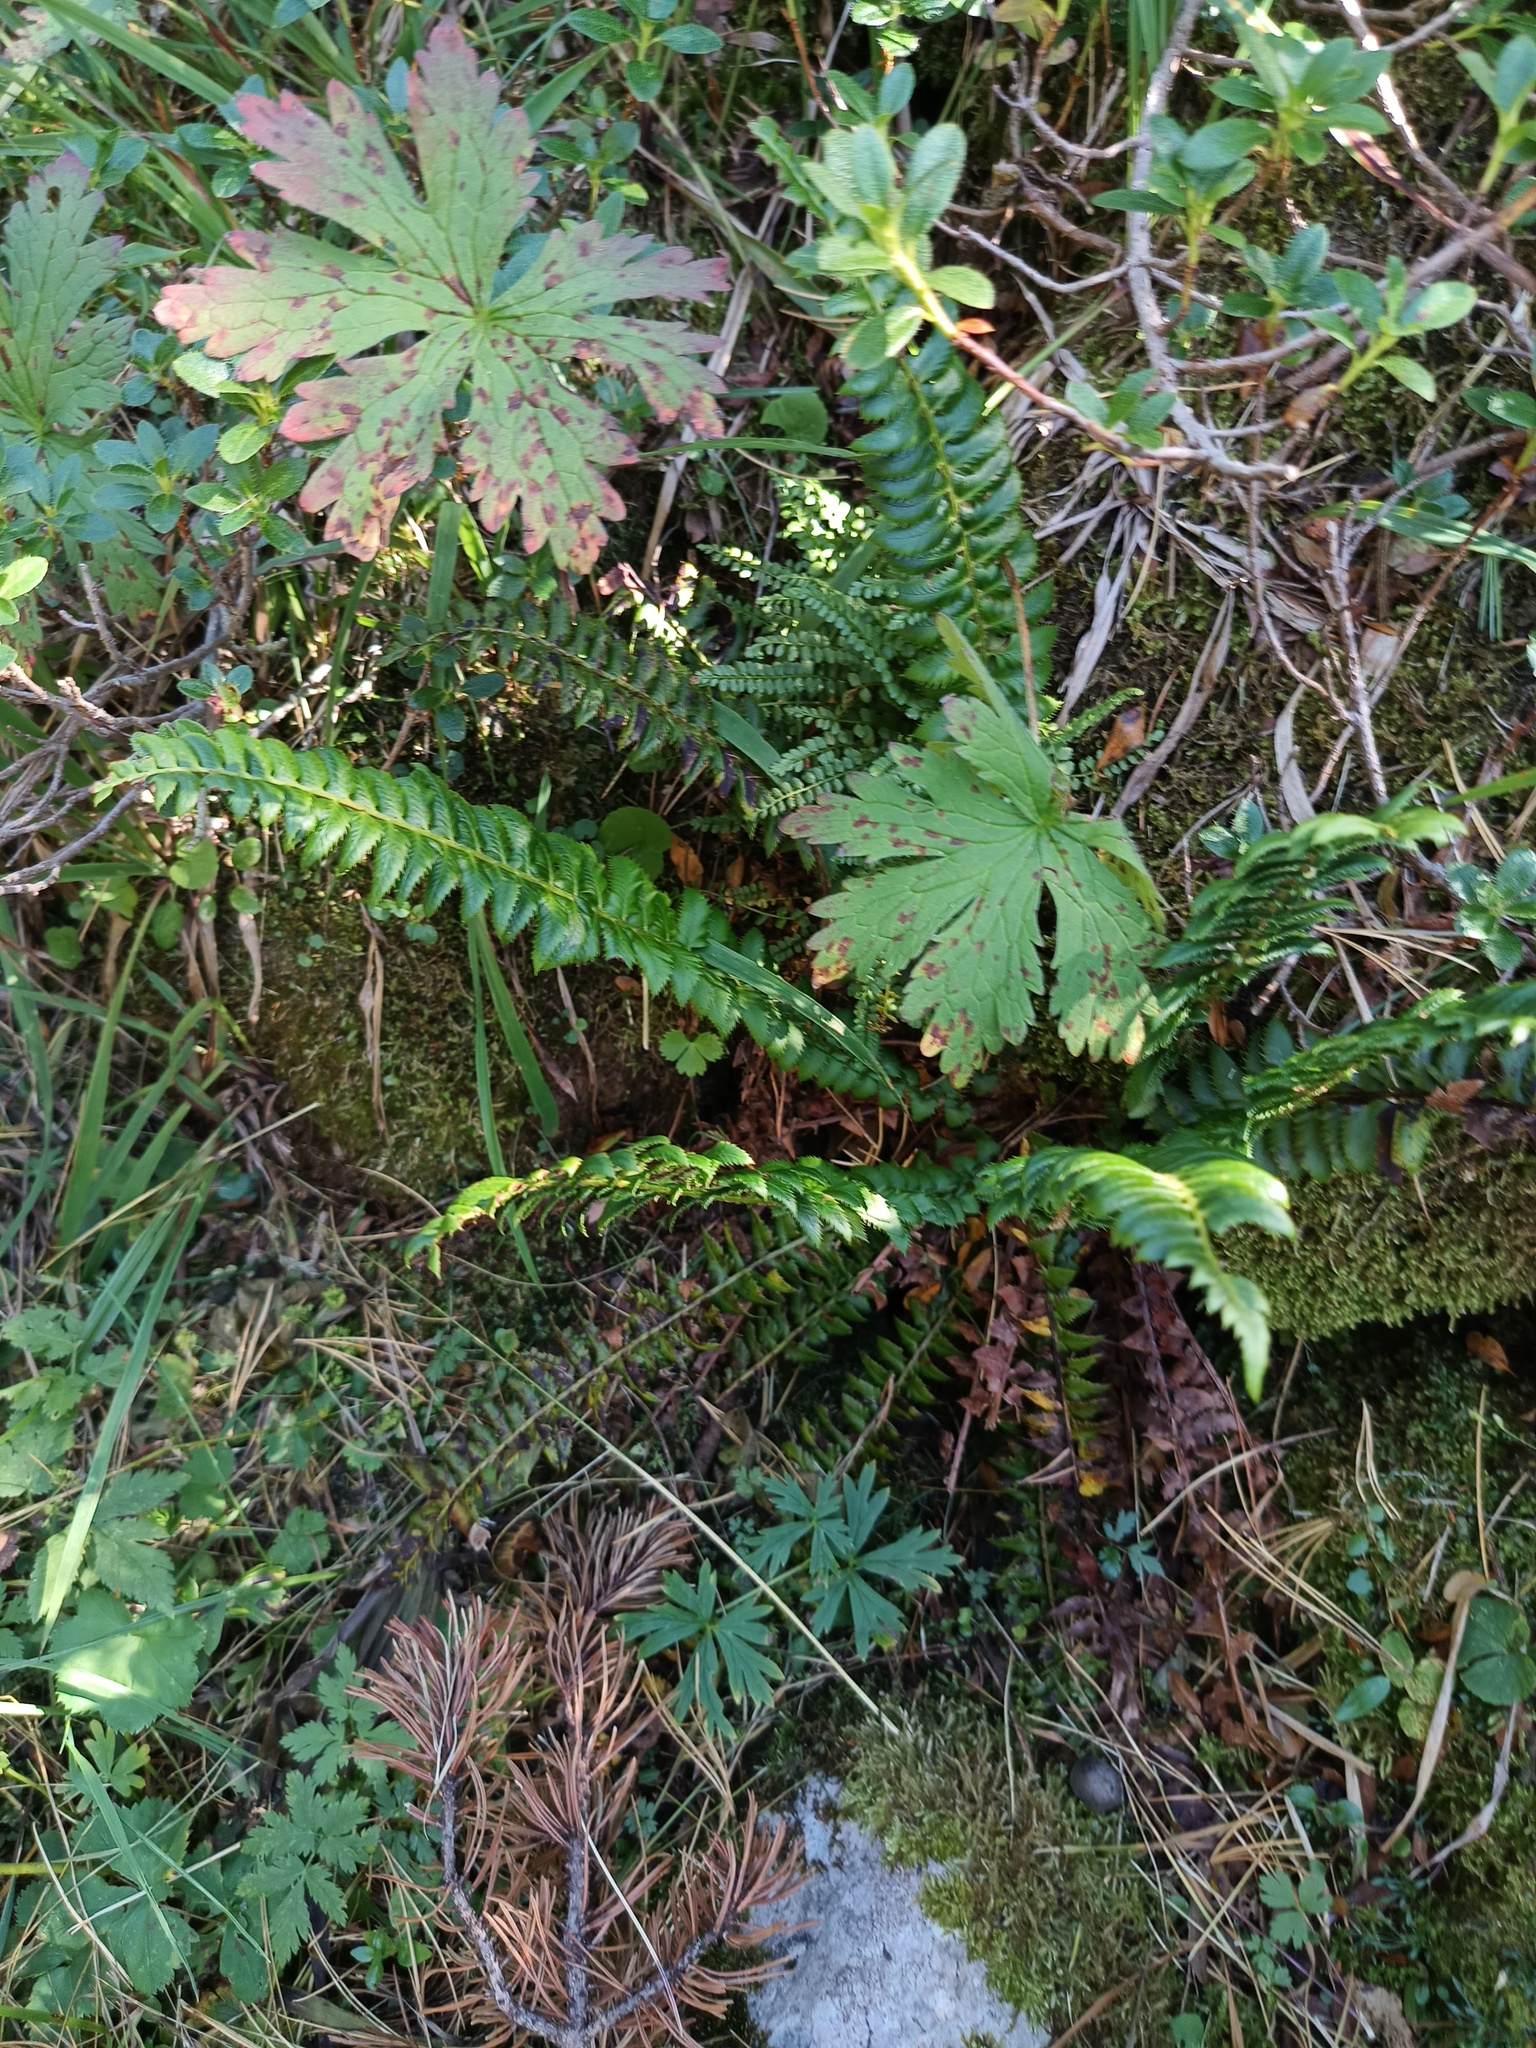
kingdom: Plantae
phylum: Tracheophyta
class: Polypodiopsida
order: Polypodiales
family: Dryopteridaceae
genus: Polystichum
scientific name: Polystichum lonchitis
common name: Holly fern
